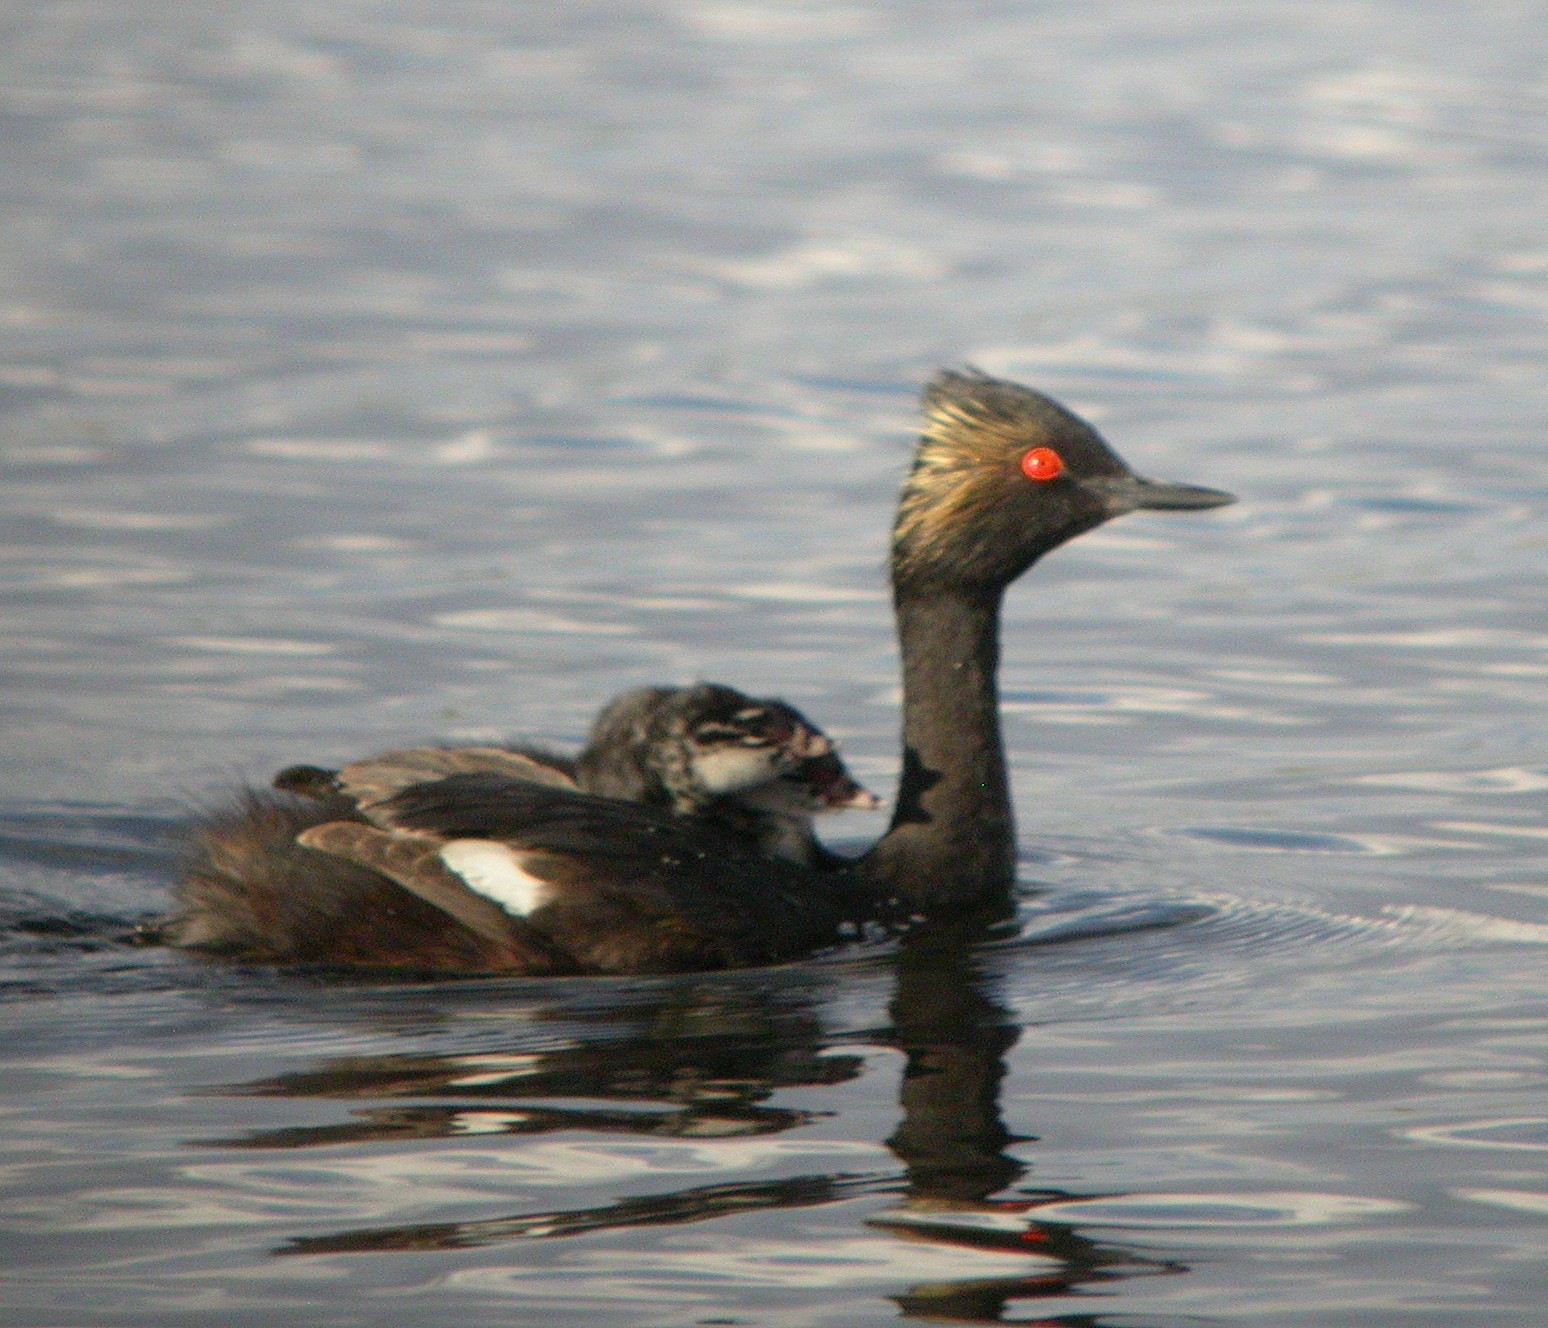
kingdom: Animalia
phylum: Chordata
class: Aves
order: Podicipediformes
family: Podicipedidae
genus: Podiceps
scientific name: Podiceps nigricollis
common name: Black-necked grebe
